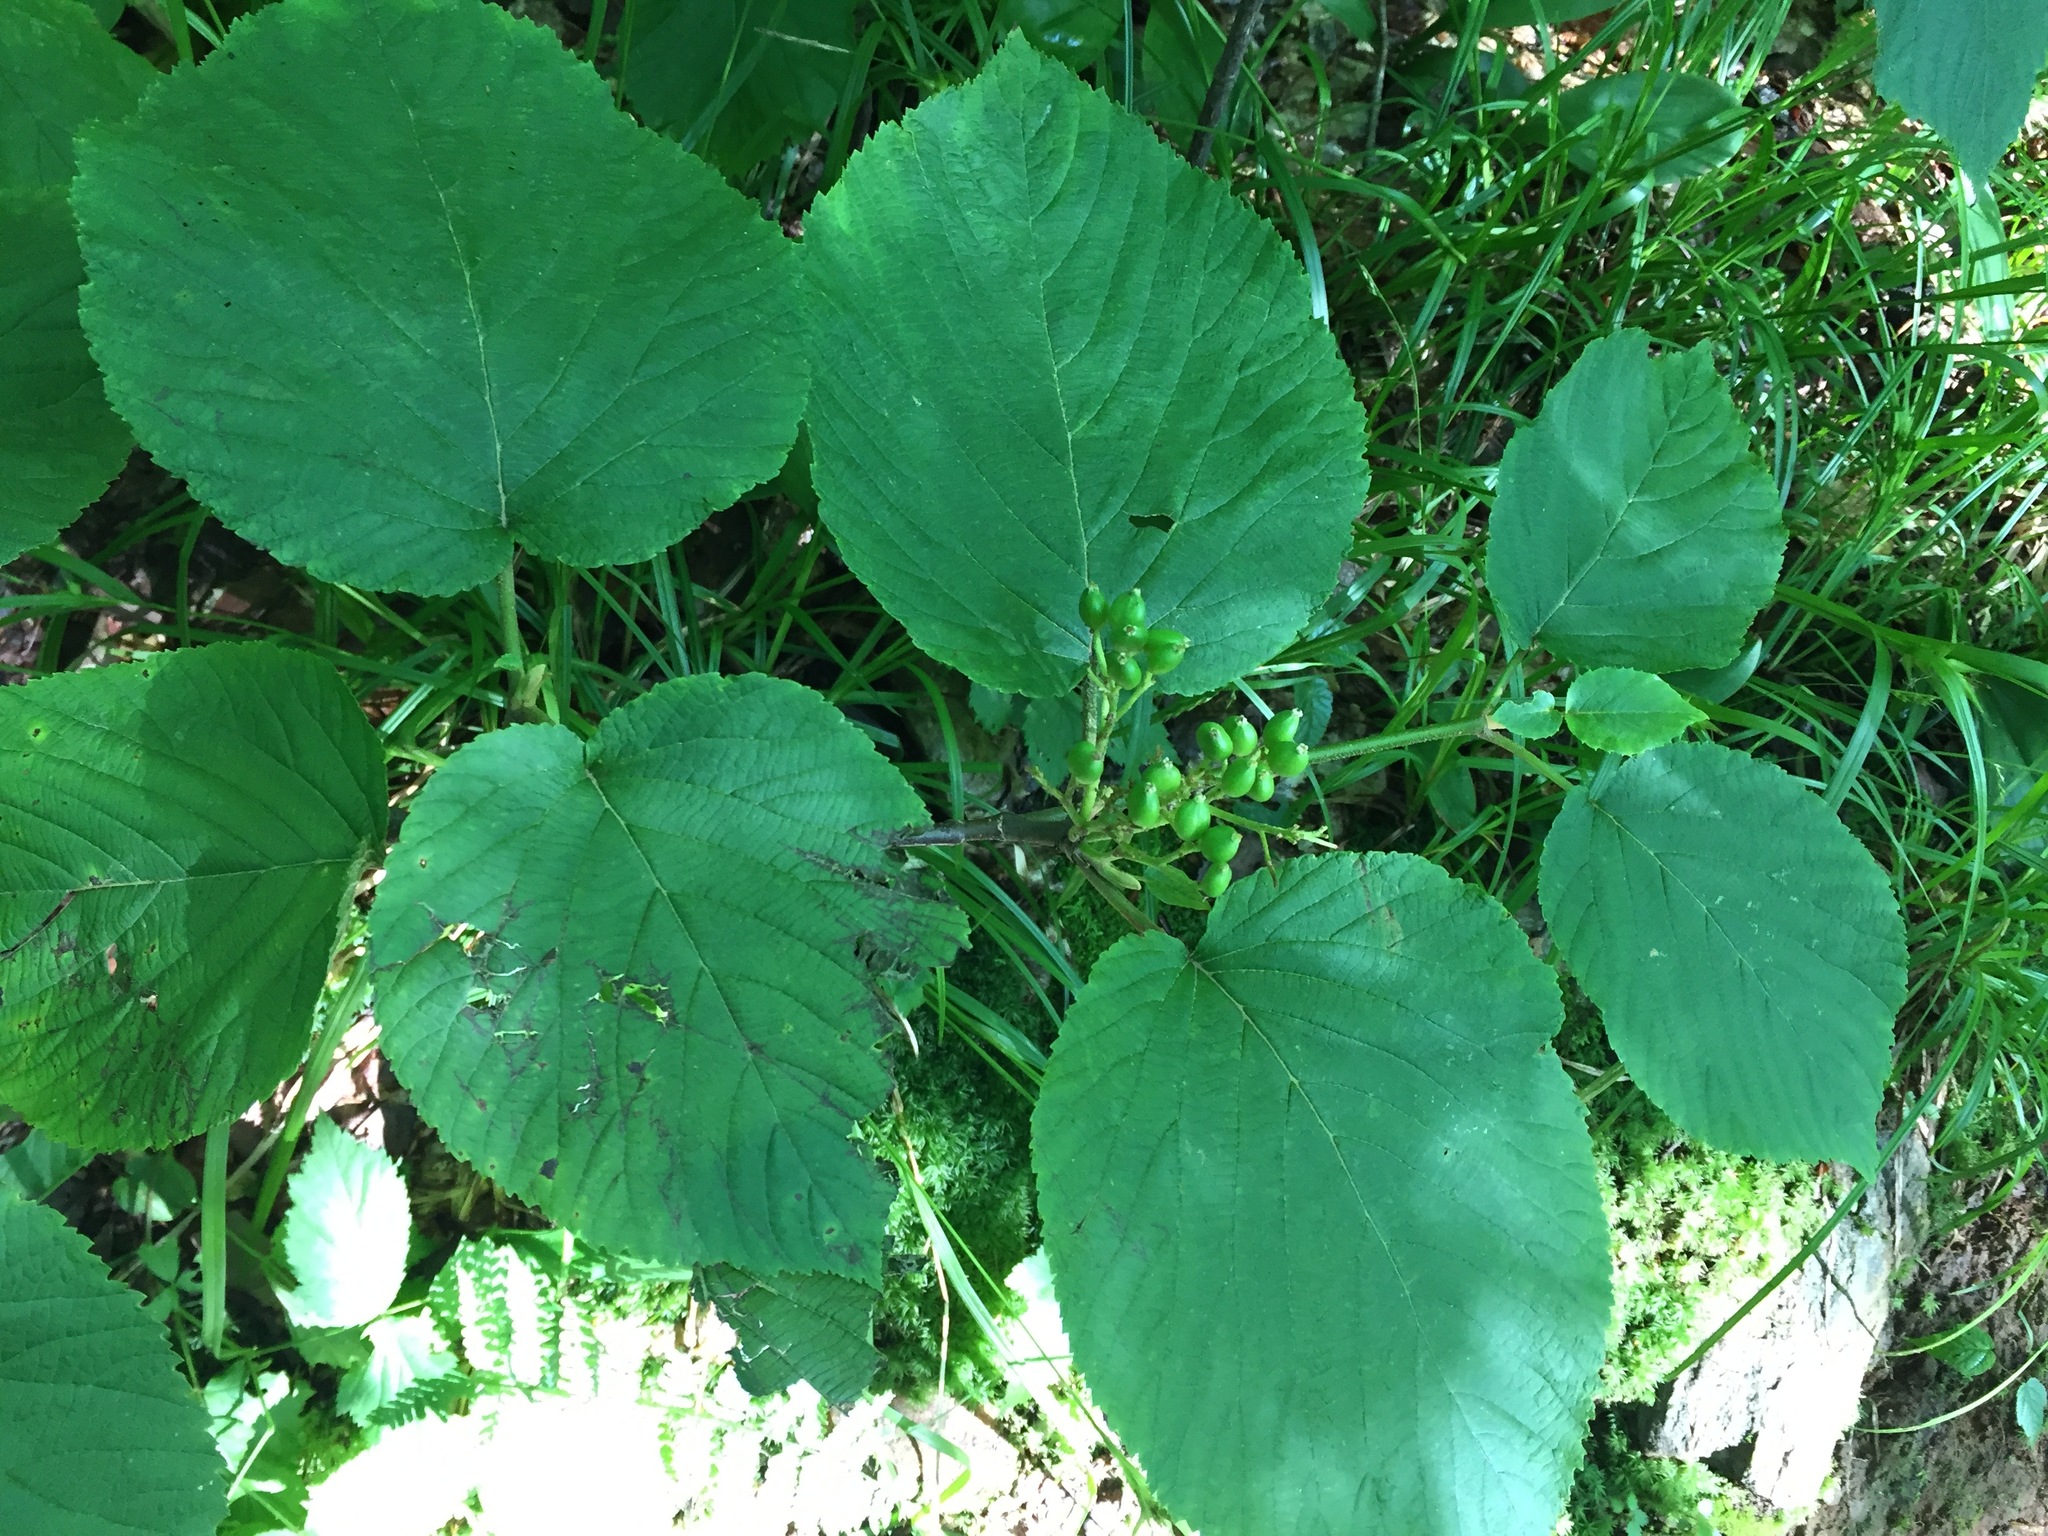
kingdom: Plantae
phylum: Tracheophyta
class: Magnoliopsida
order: Dipsacales
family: Viburnaceae
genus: Viburnum
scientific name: Viburnum lantanoides
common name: Hobblebush
